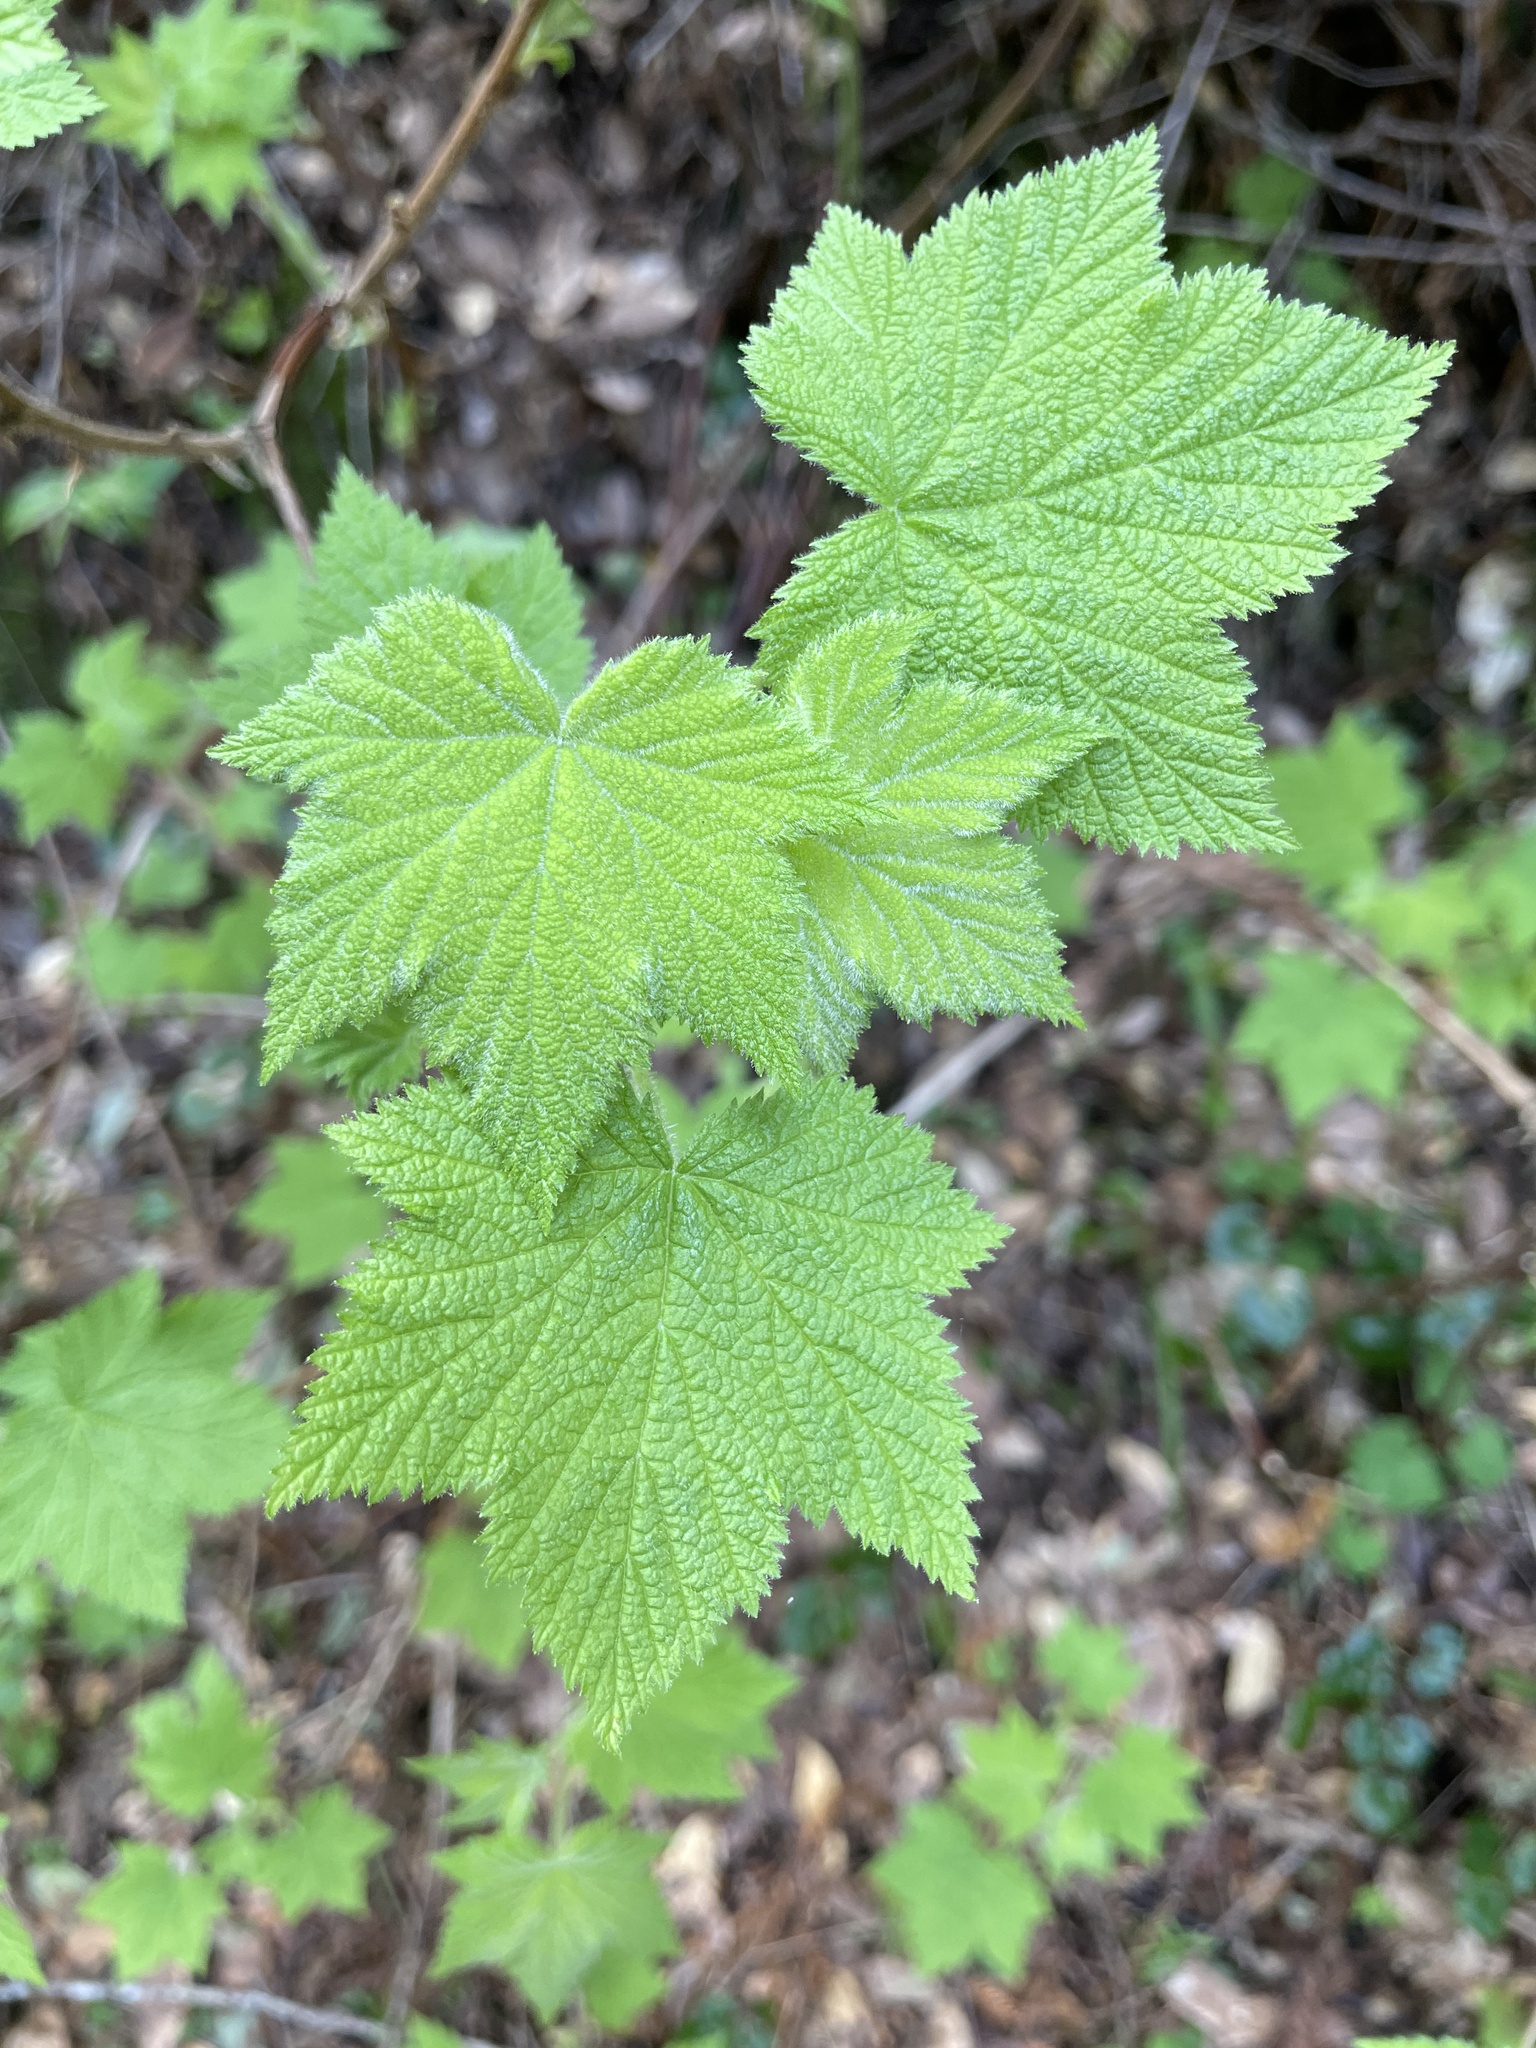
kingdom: Plantae
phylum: Tracheophyta
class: Magnoliopsida
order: Rosales
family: Rosaceae
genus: Rubus
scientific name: Rubus parviflorus
